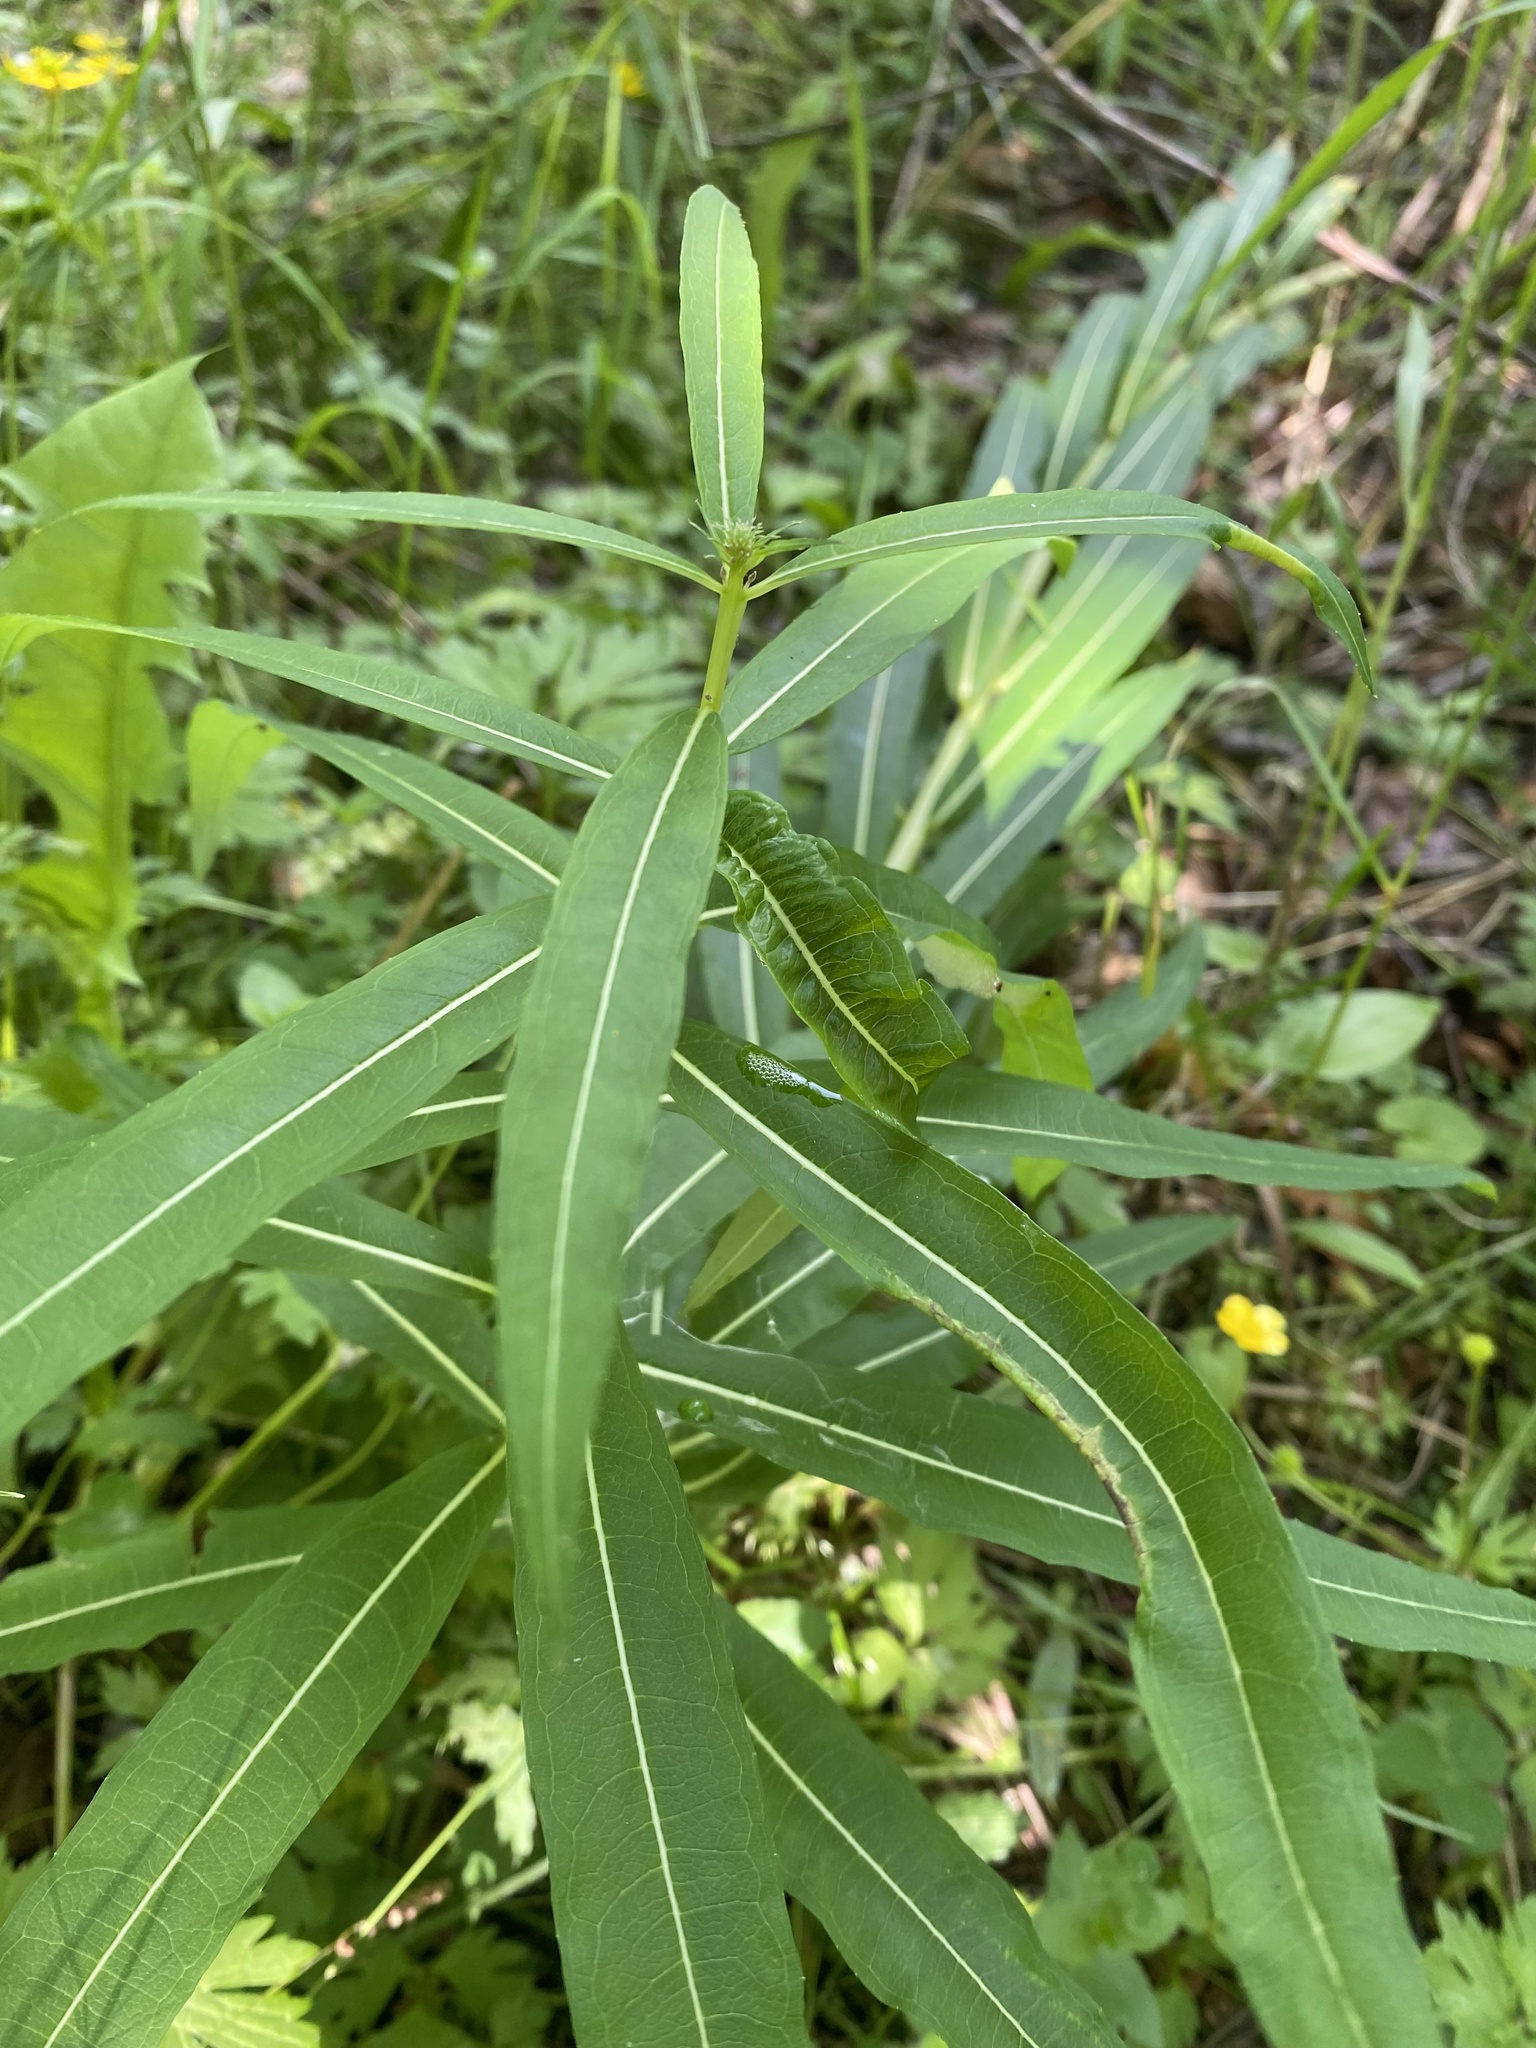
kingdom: Plantae
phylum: Tracheophyta
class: Magnoliopsida
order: Myrtales
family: Onagraceae
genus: Chamaenerion
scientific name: Chamaenerion angustifolium
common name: Fireweed
